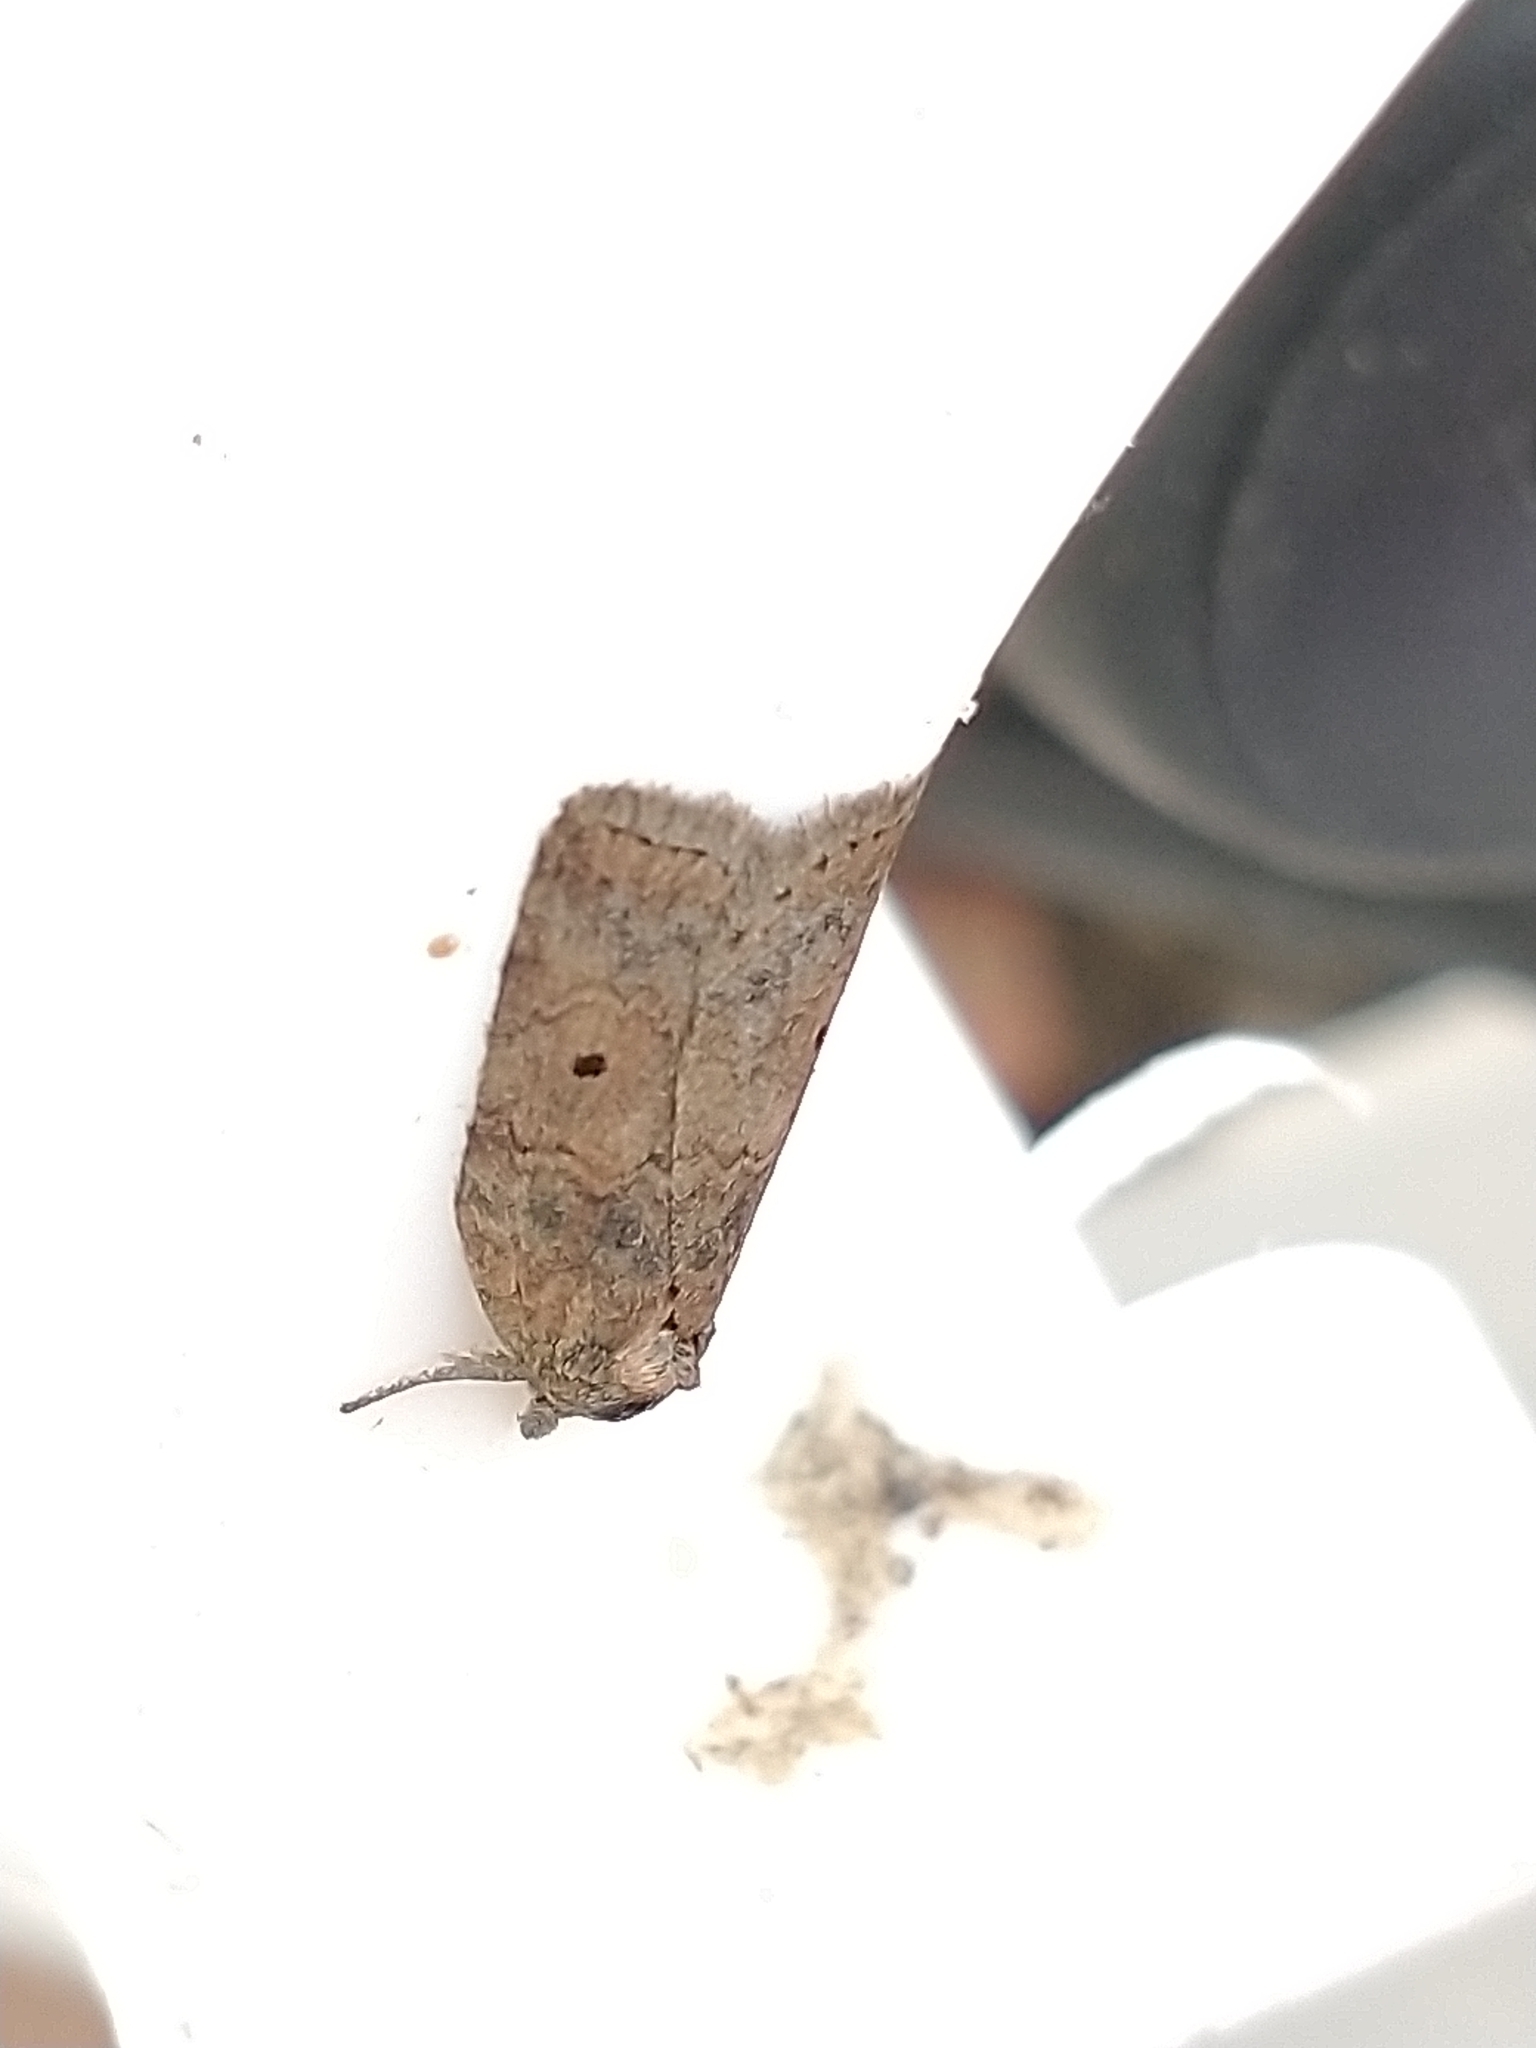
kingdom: Animalia
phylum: Arthropoda
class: Insecta
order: Lepidoptera
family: Nolidae
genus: Nycteola
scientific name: Nycteola revayana
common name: Oak nycteoline
